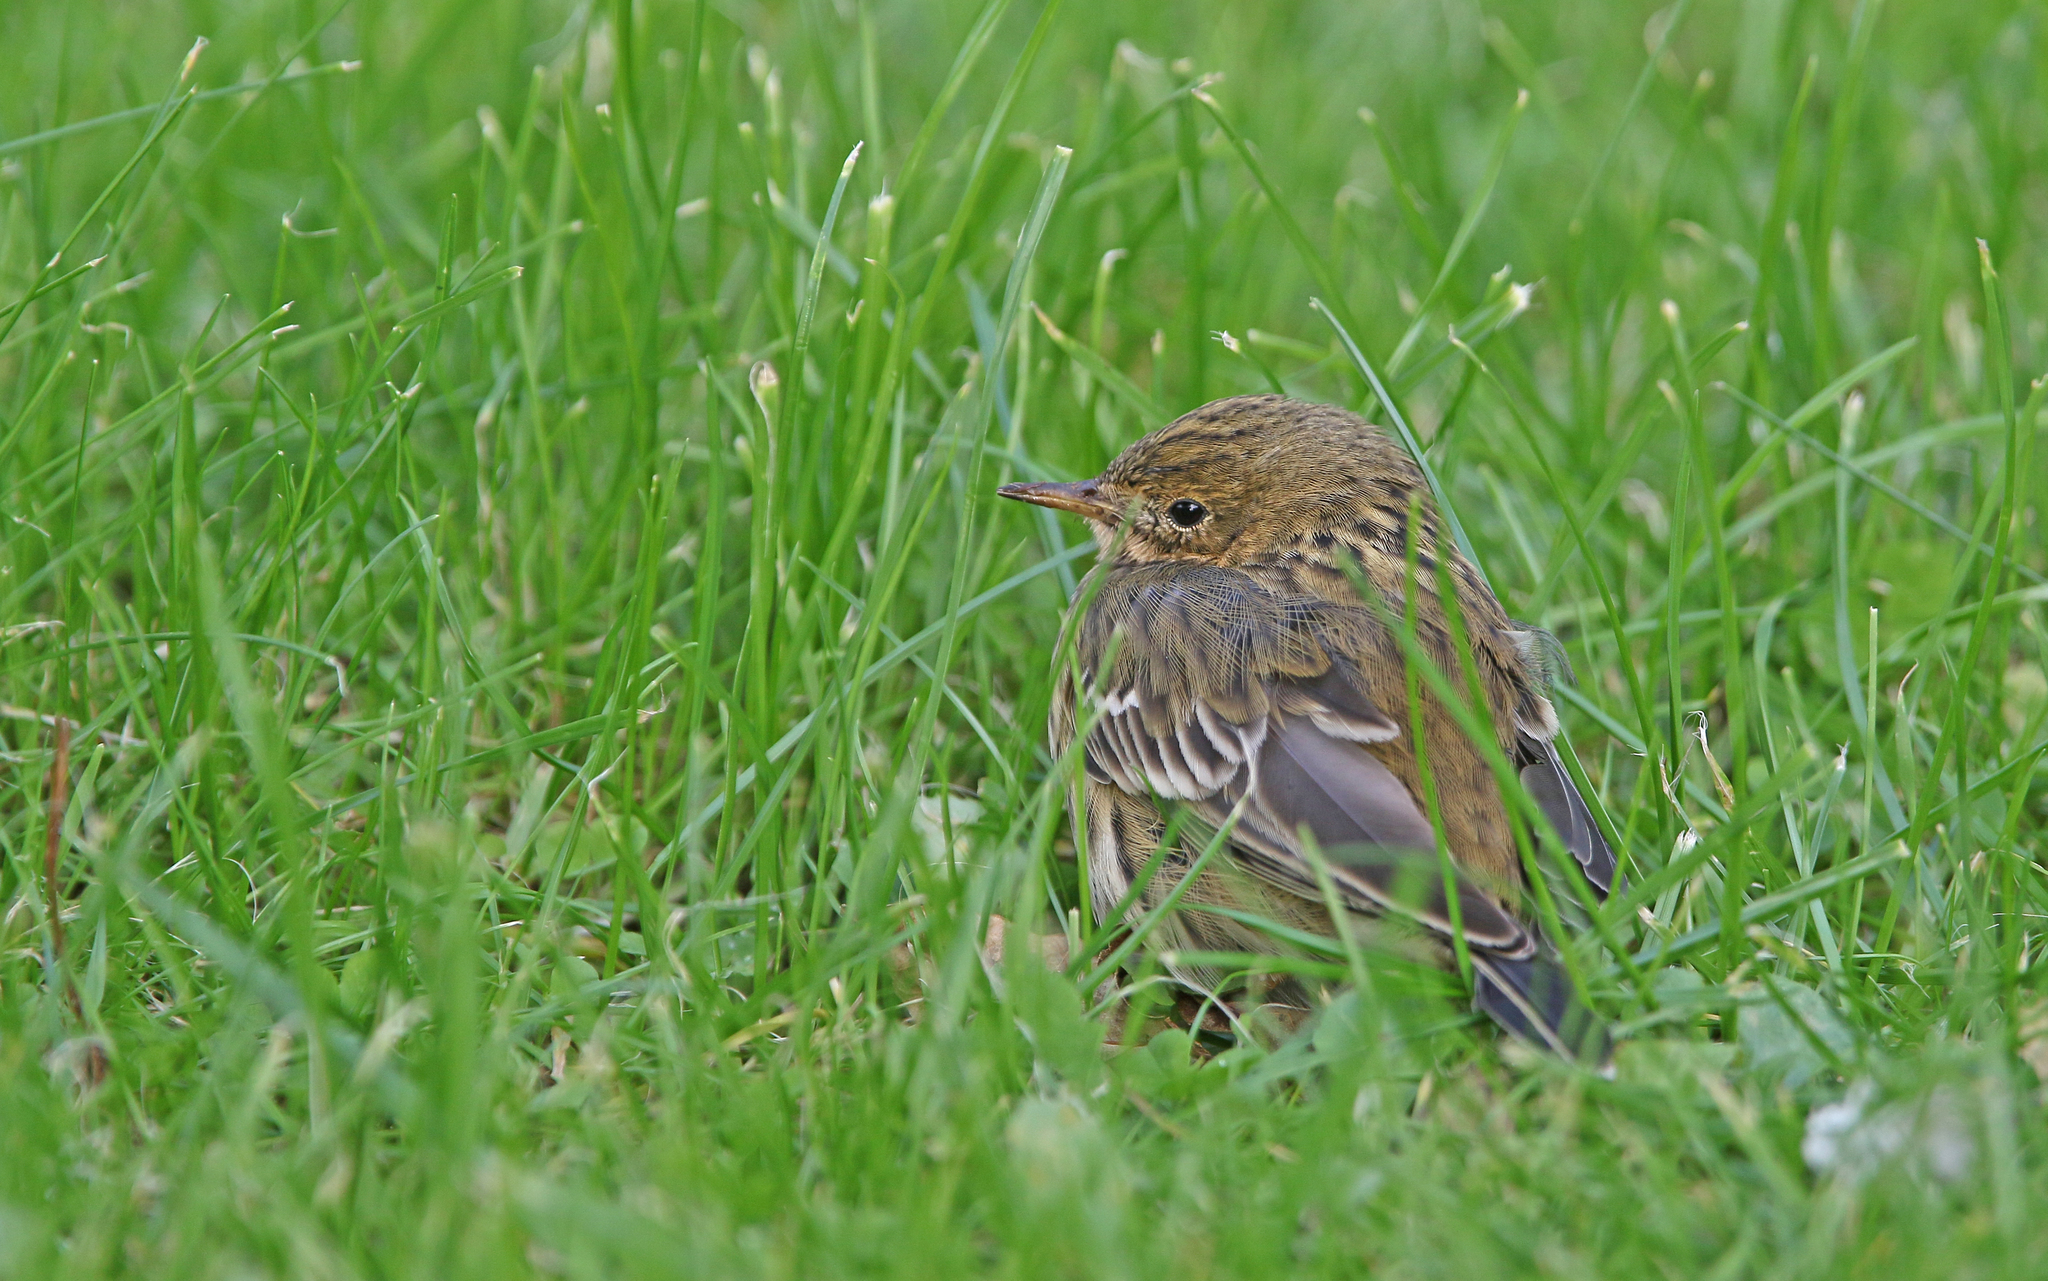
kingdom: Animalia
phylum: Chordata
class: Aves
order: Passeriformes
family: Motacillidae
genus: Anthus
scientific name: Anthus pratensis
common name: Meadow pipit
